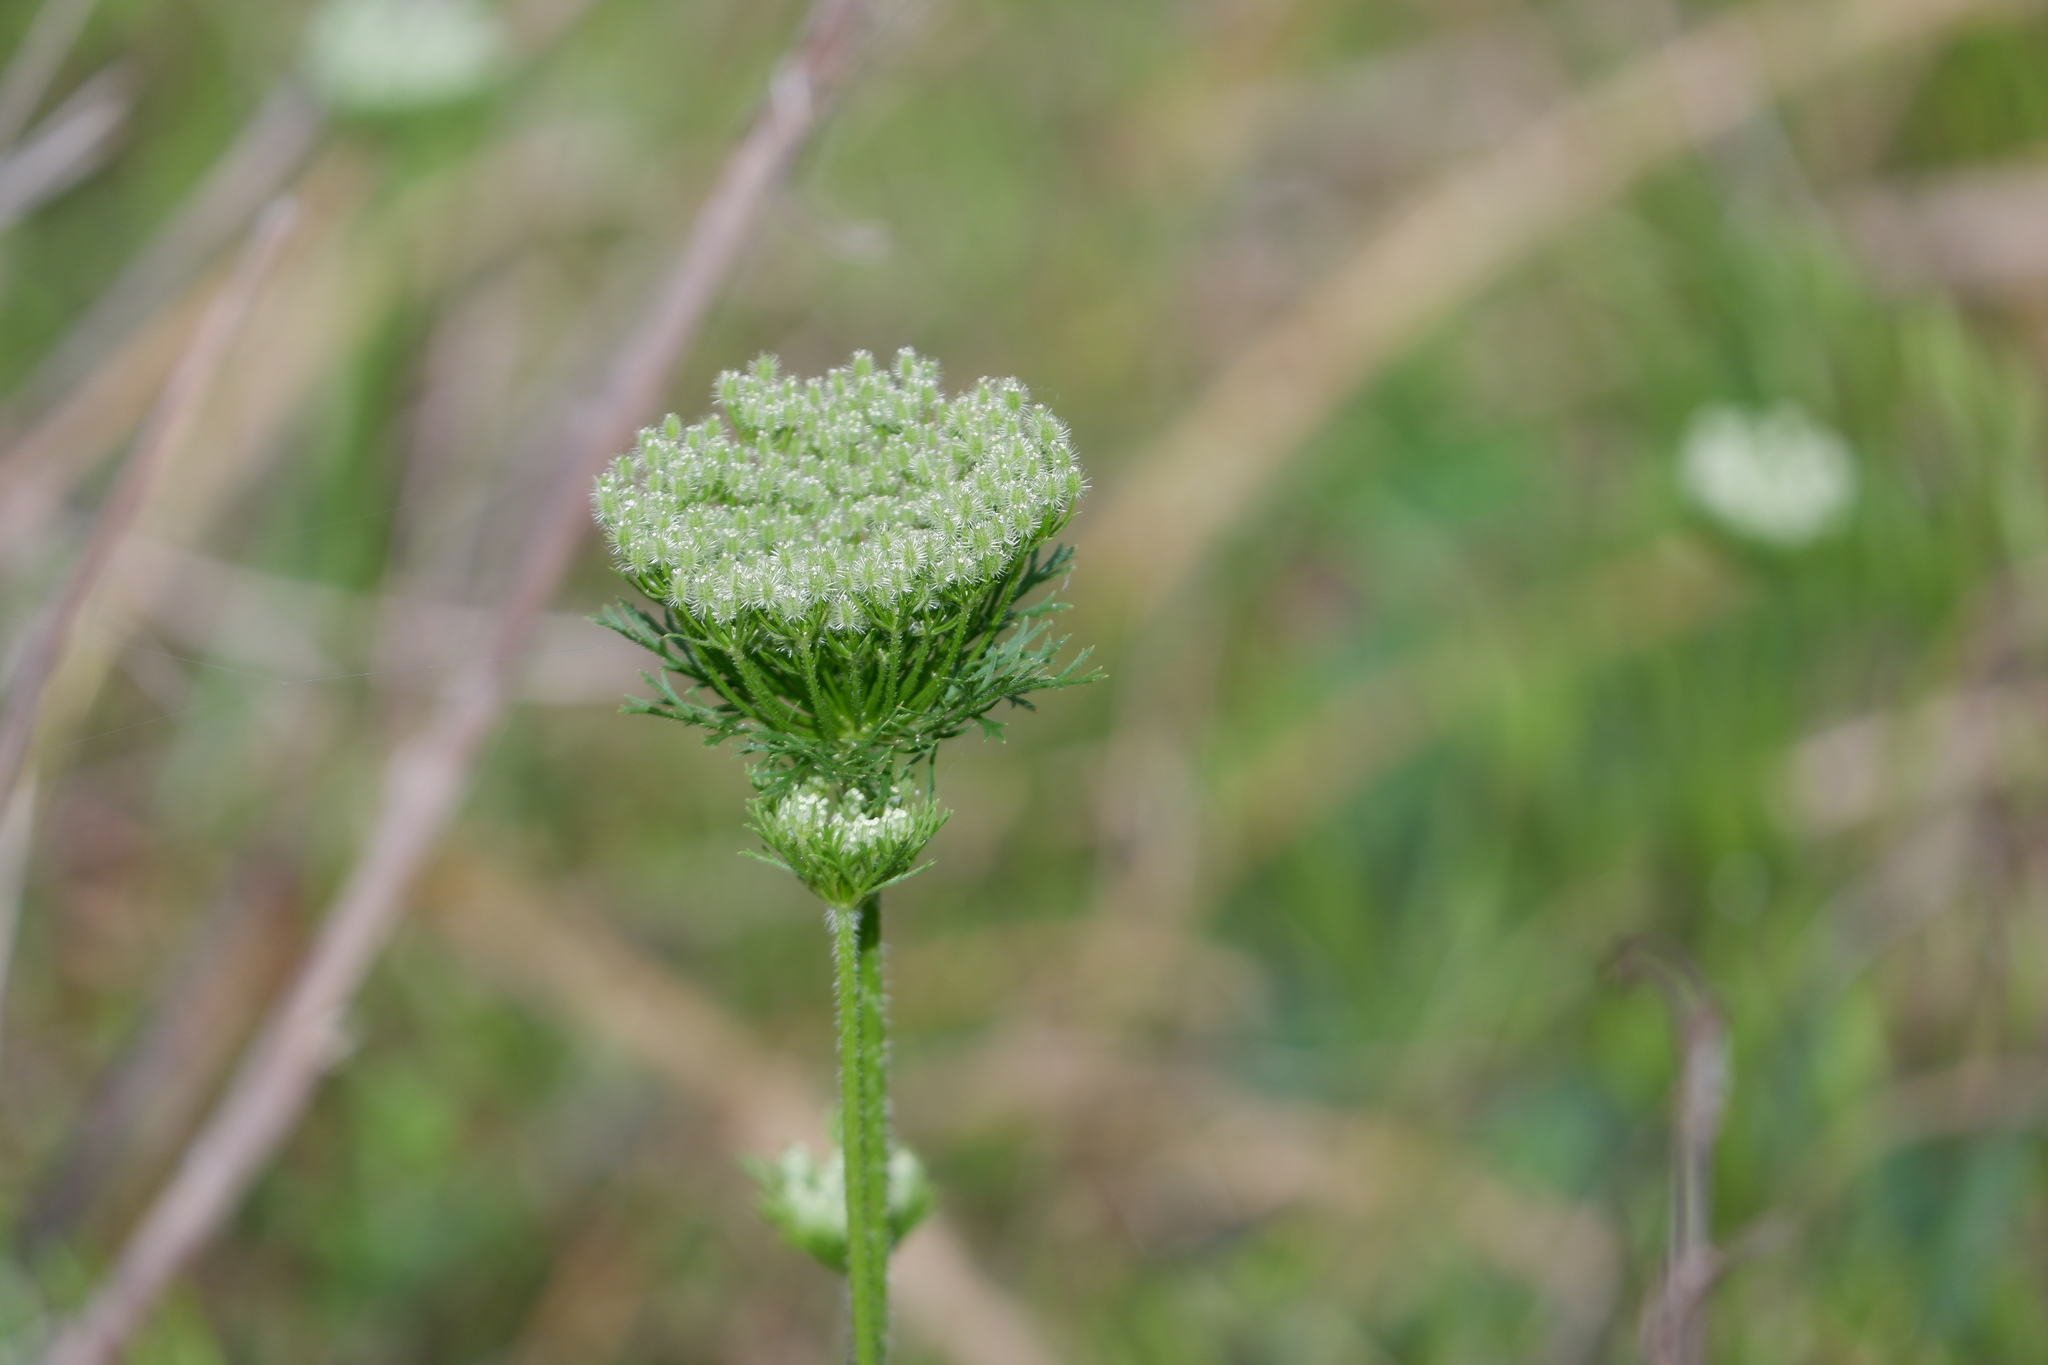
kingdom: Plantae
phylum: Tracheophyta
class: Magnoliopsida
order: Apiales
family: Apiaceae
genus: Daucus
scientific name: Daucus pusillus
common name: Southwest wild carrot
